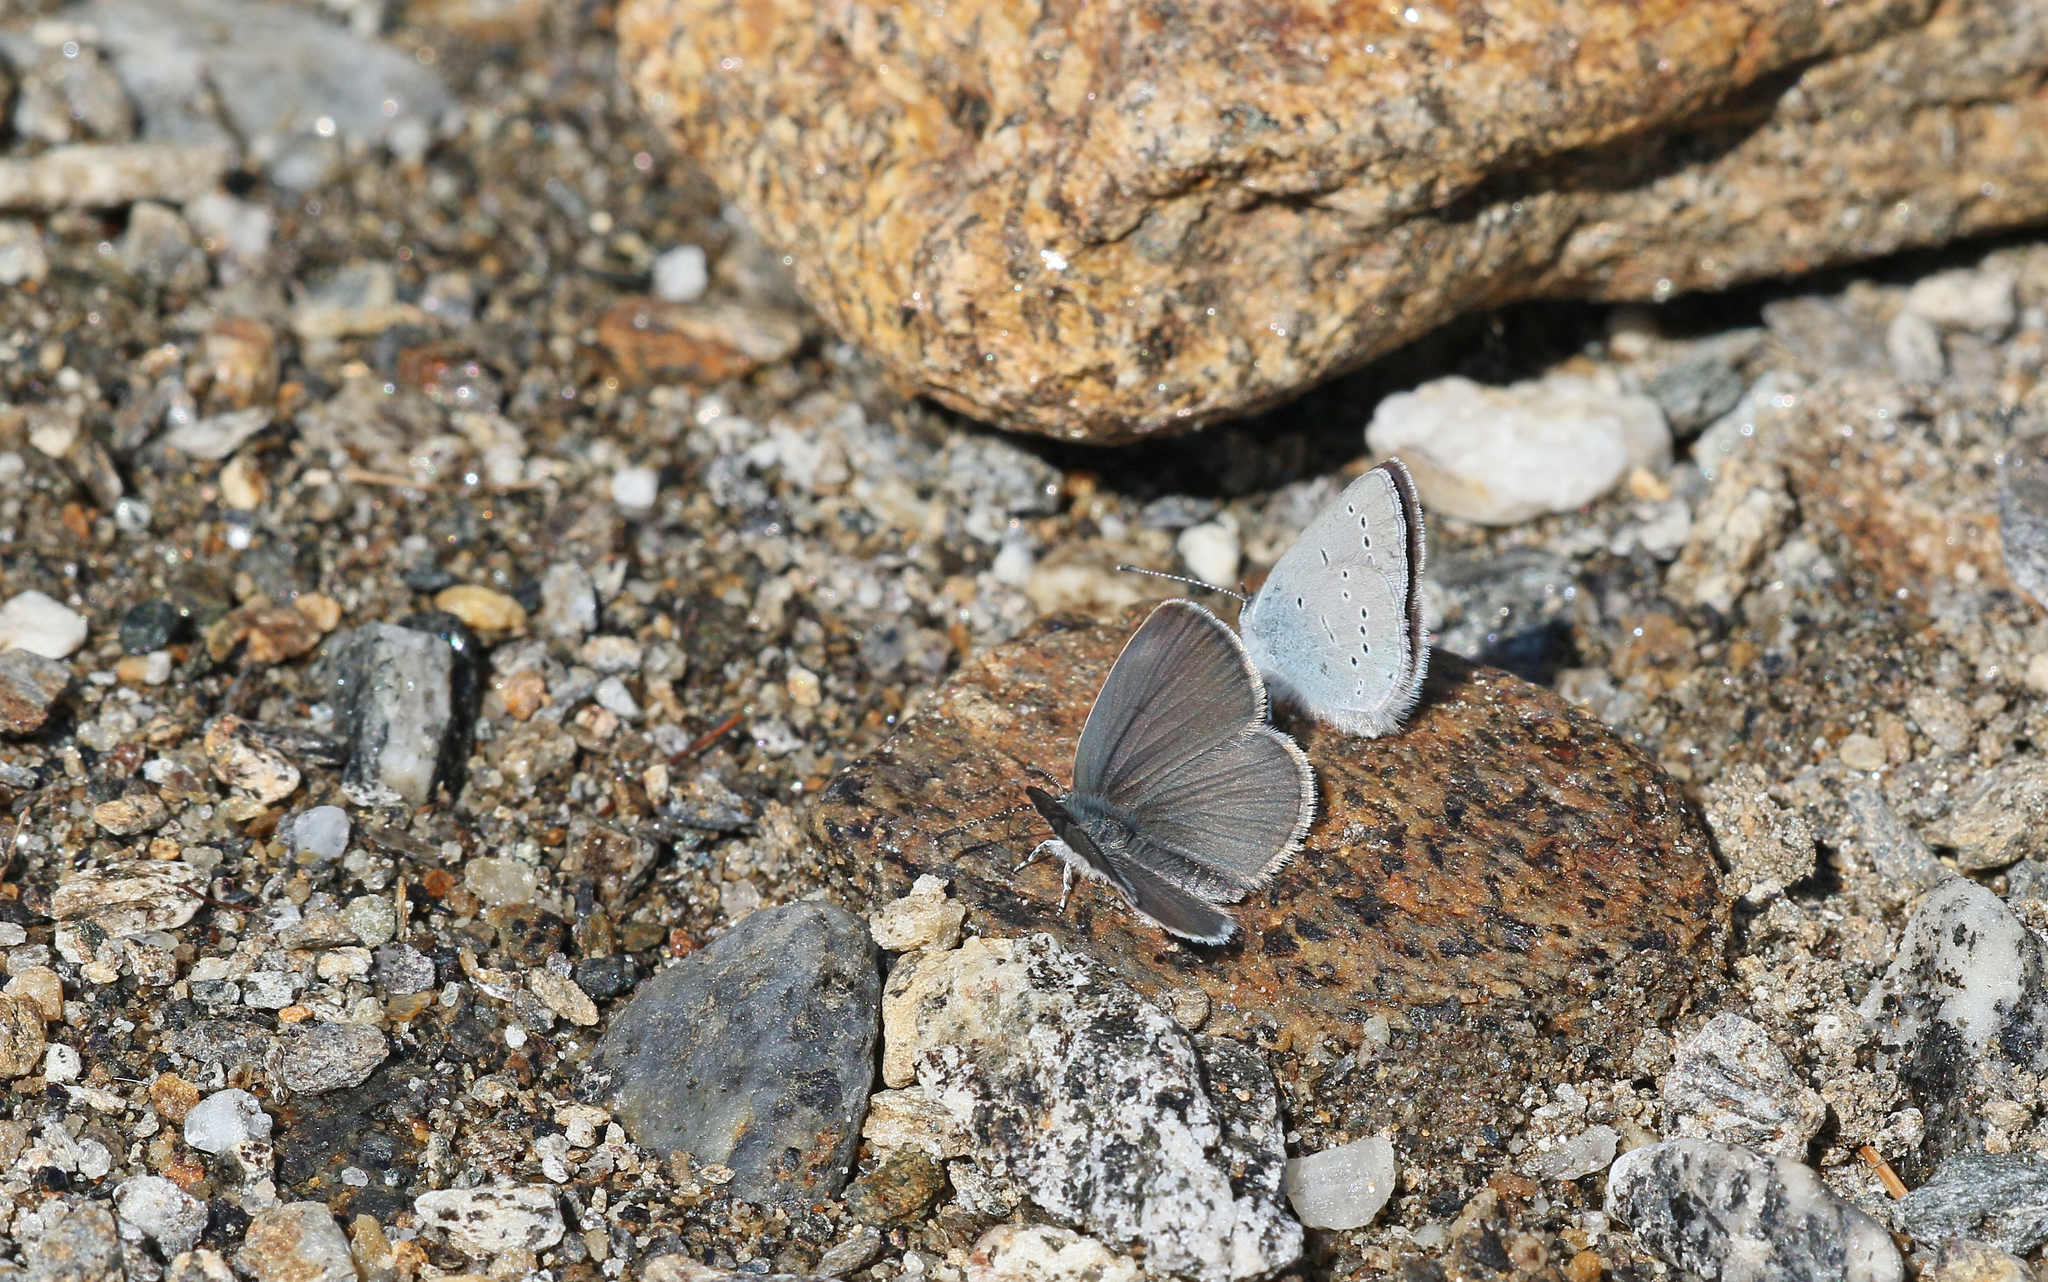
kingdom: Animalia
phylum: Arthropoda
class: Insecta
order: Lepidoptera
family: Lycaenidae
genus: Cupido
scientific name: Cupido minimus
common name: Small blue
